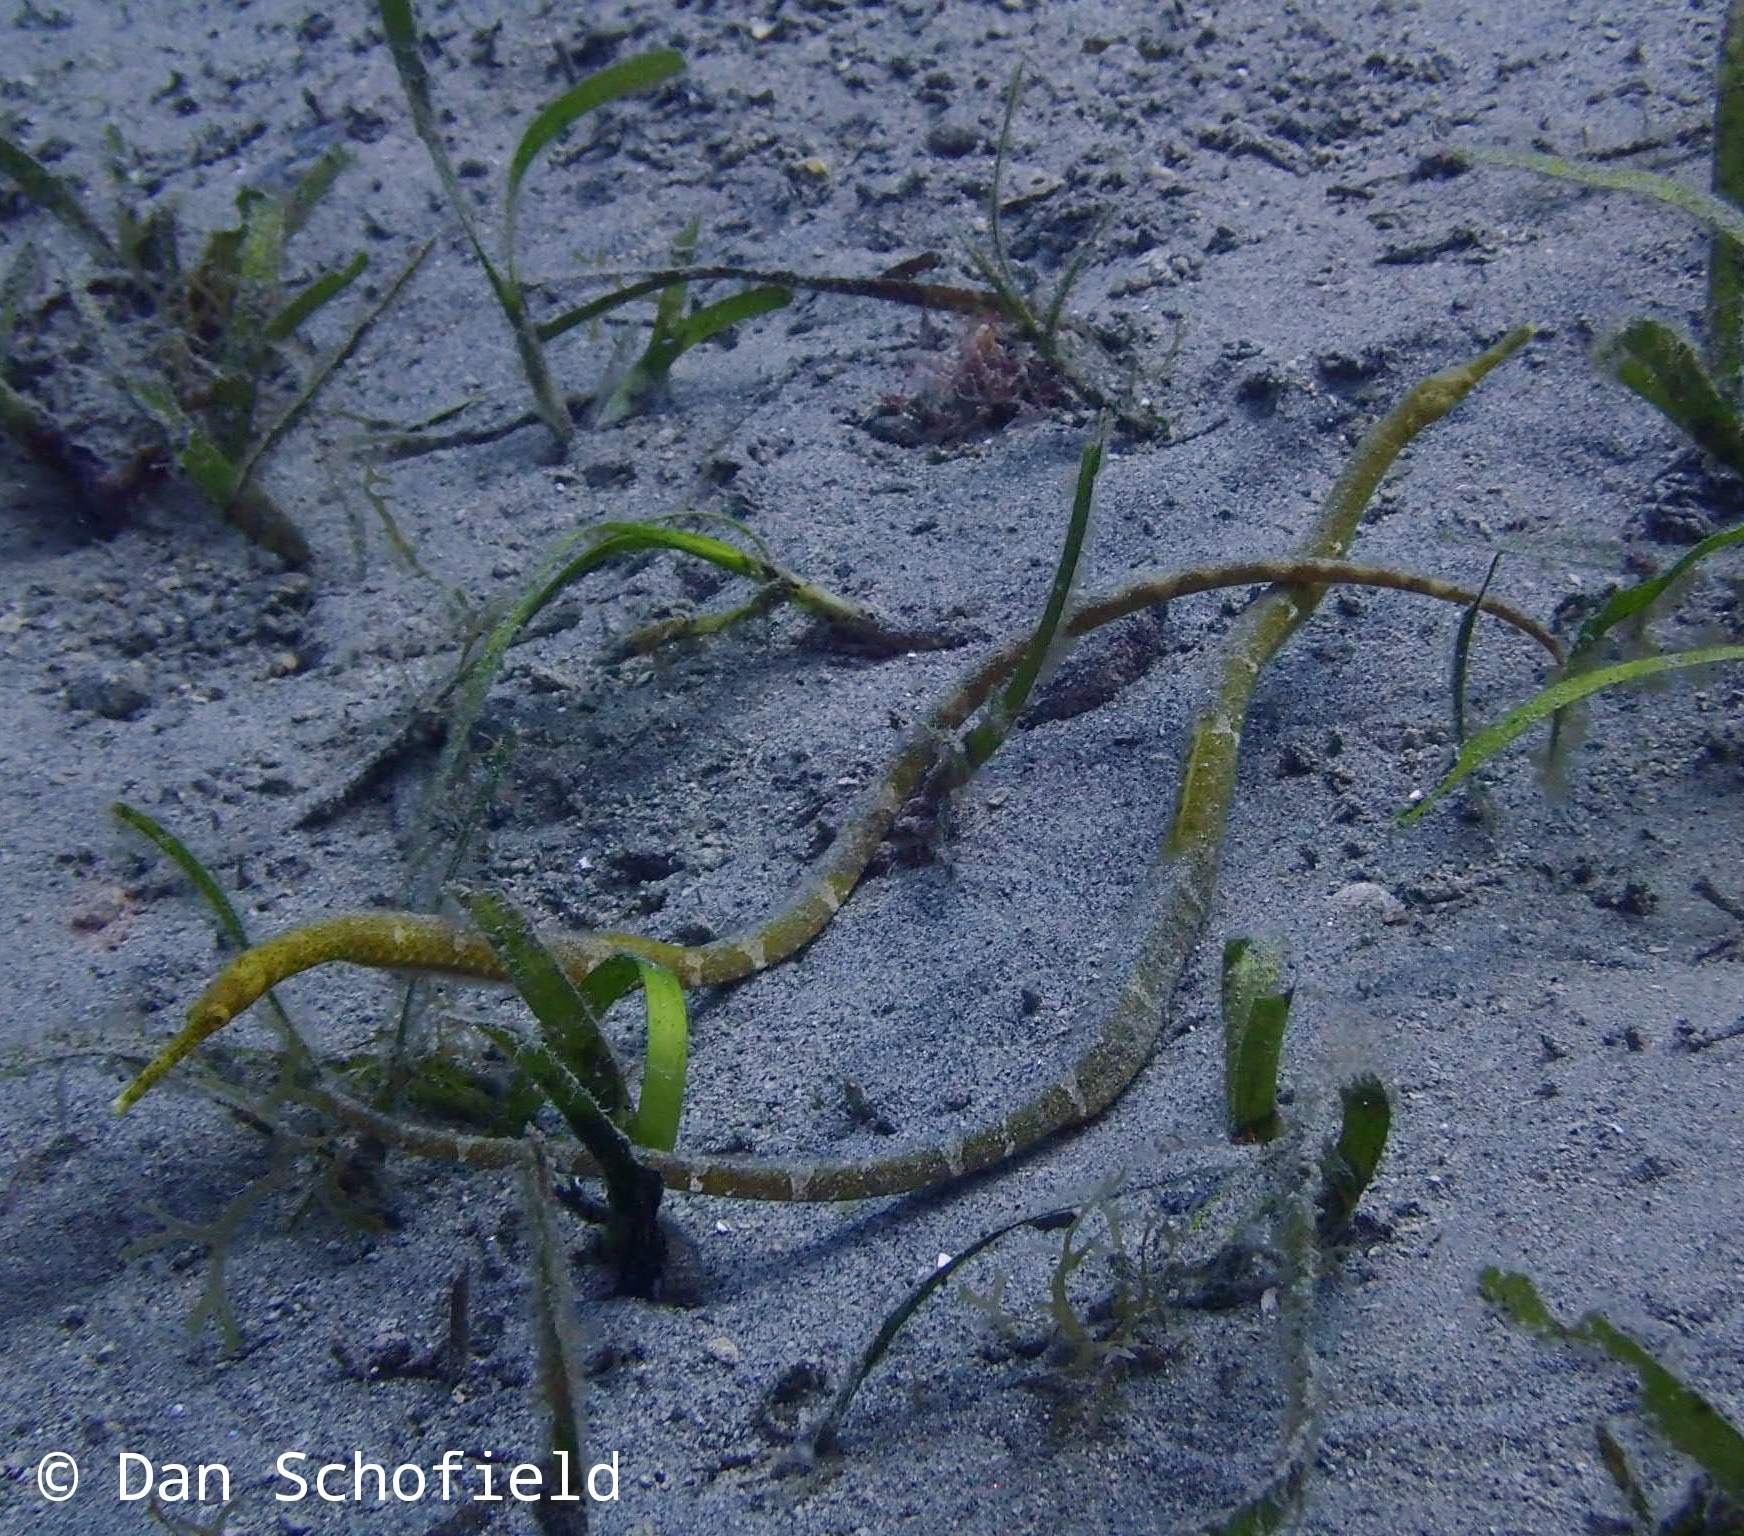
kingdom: Animalia
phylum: Chordata
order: Syngnathiformes
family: Syngnathidae
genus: Trachyrhamphus
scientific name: Trachyrhamphus bicoarctatus
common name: Double-ended pipefish
